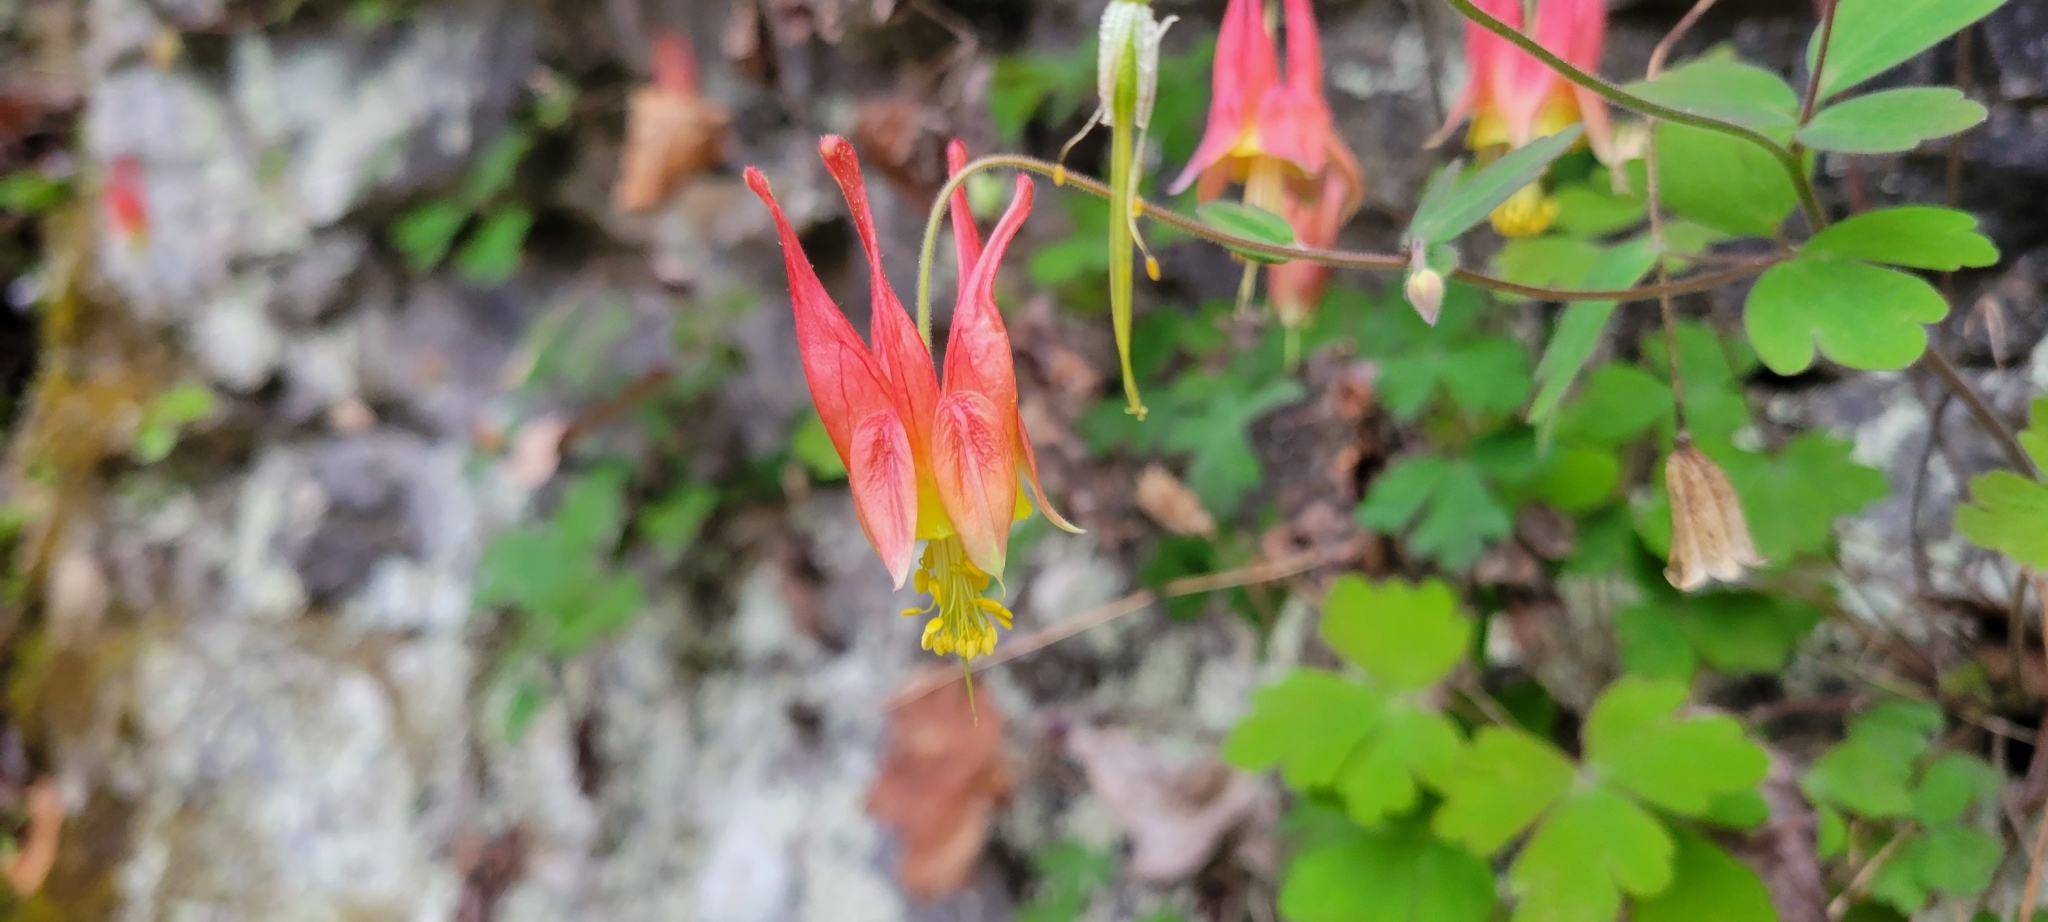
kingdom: Plantae
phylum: Tracheophyta
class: Magnoliopsida
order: Ranunculales
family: Ranunculaceae
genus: Aquilegia
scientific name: Aquilegia canadensis
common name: American columbine
